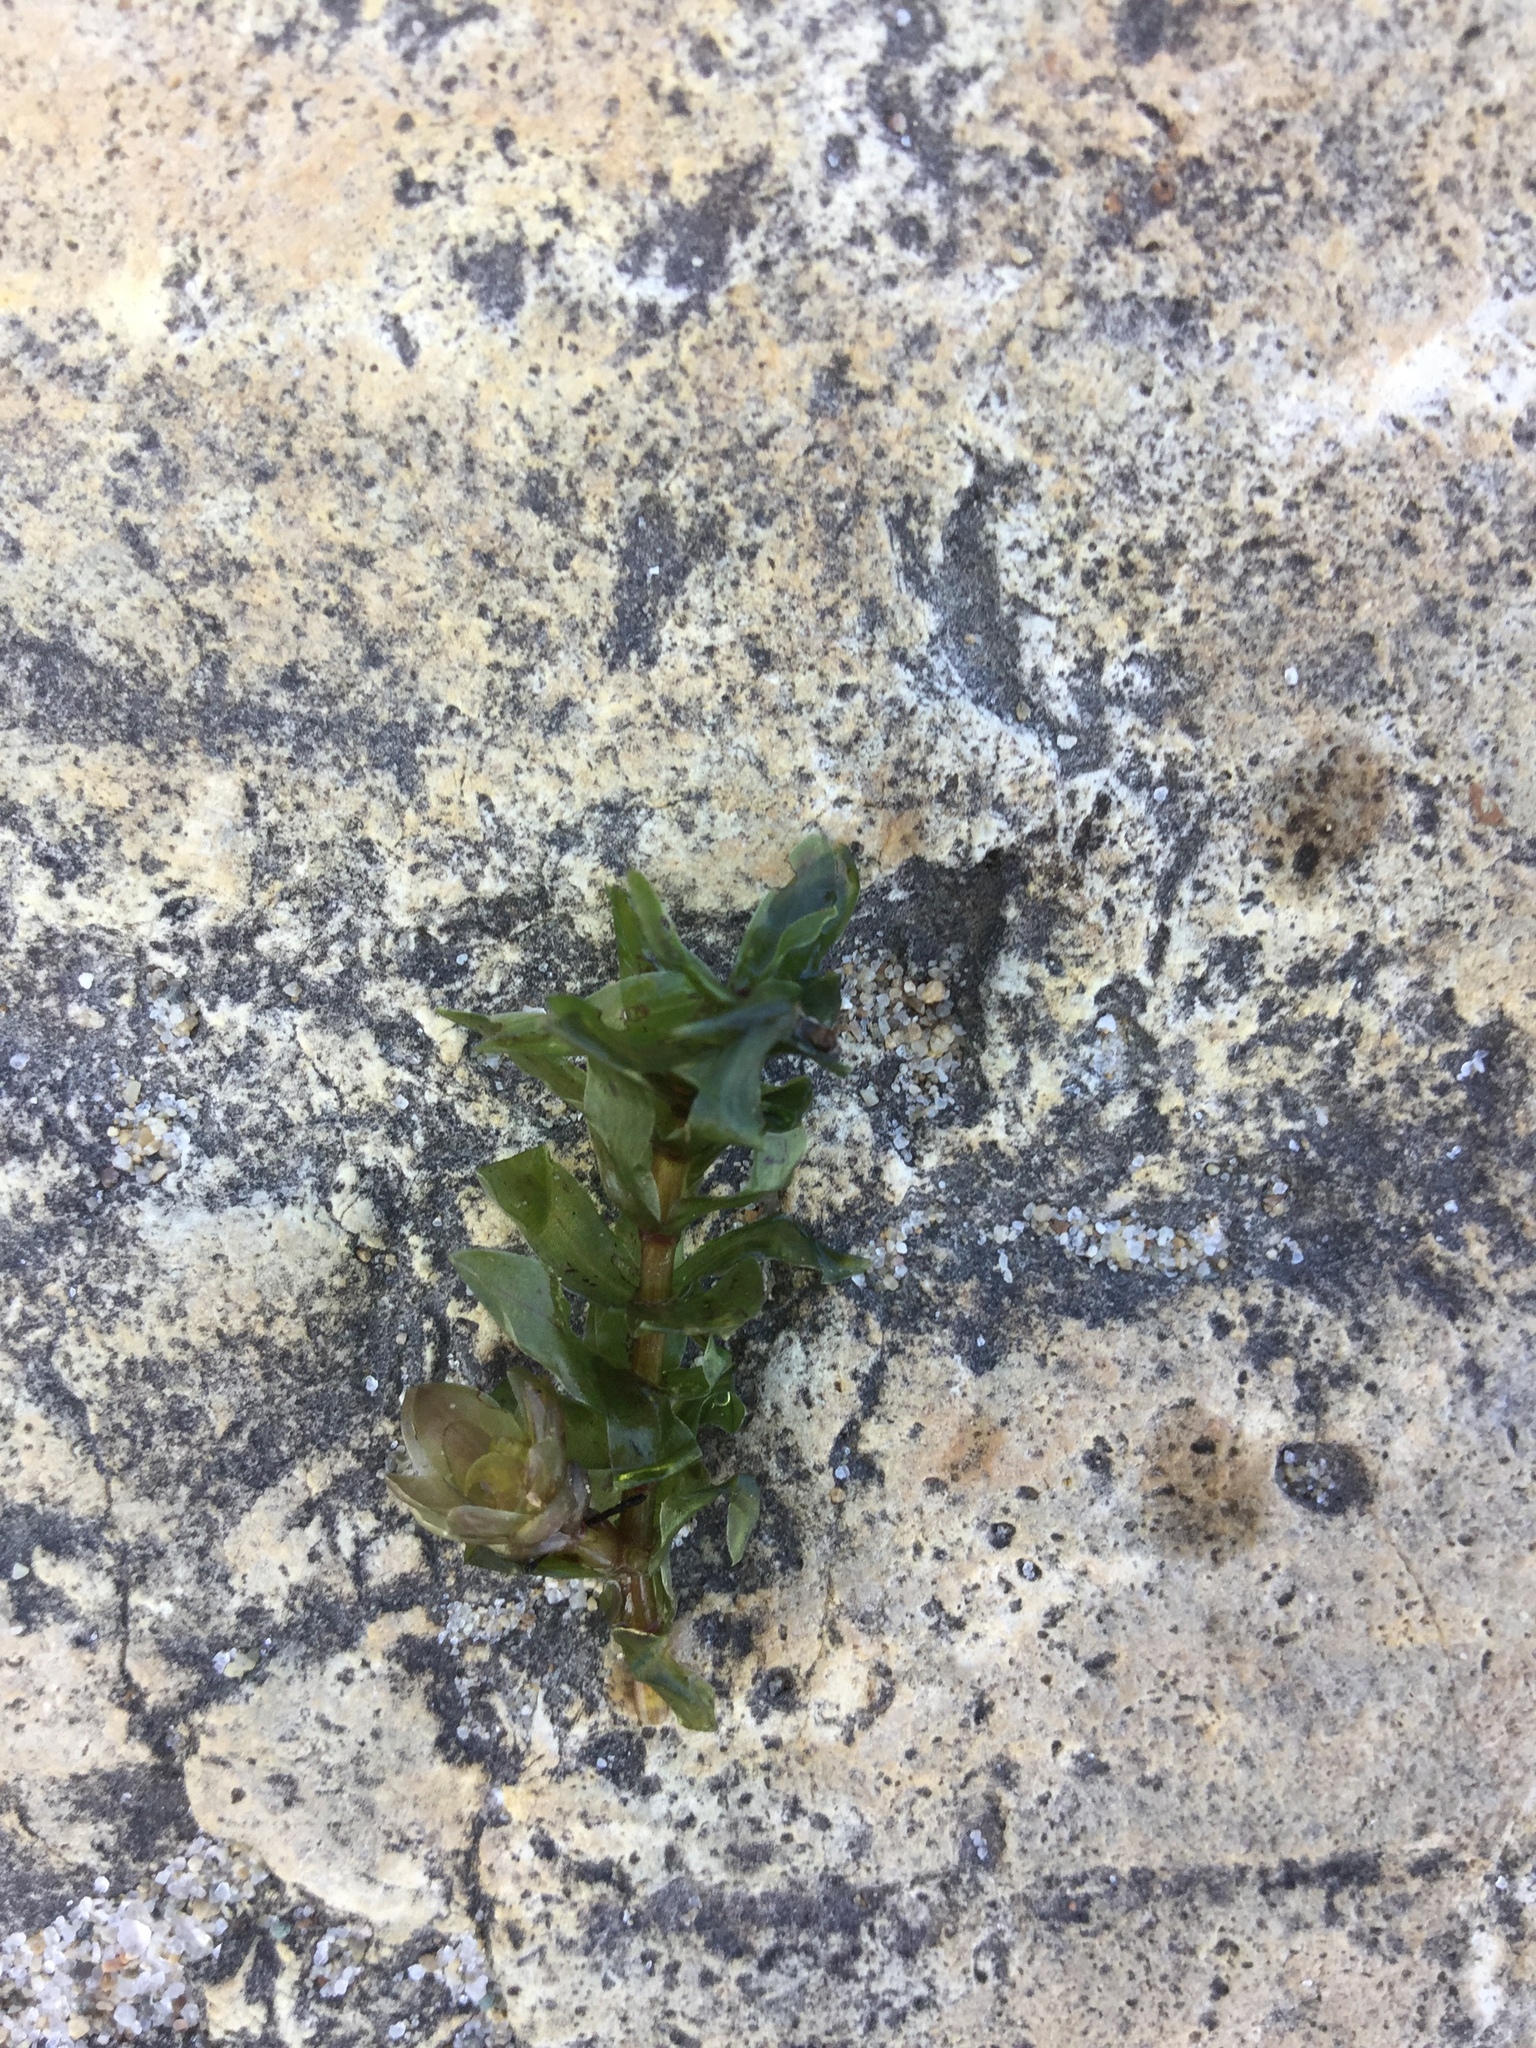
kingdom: Plantae
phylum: Tracheophyta
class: Liliopsida
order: Alismatales
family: Hydrocharitaceae
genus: Elodea
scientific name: Elodea canadensis
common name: Canadian waterweed
